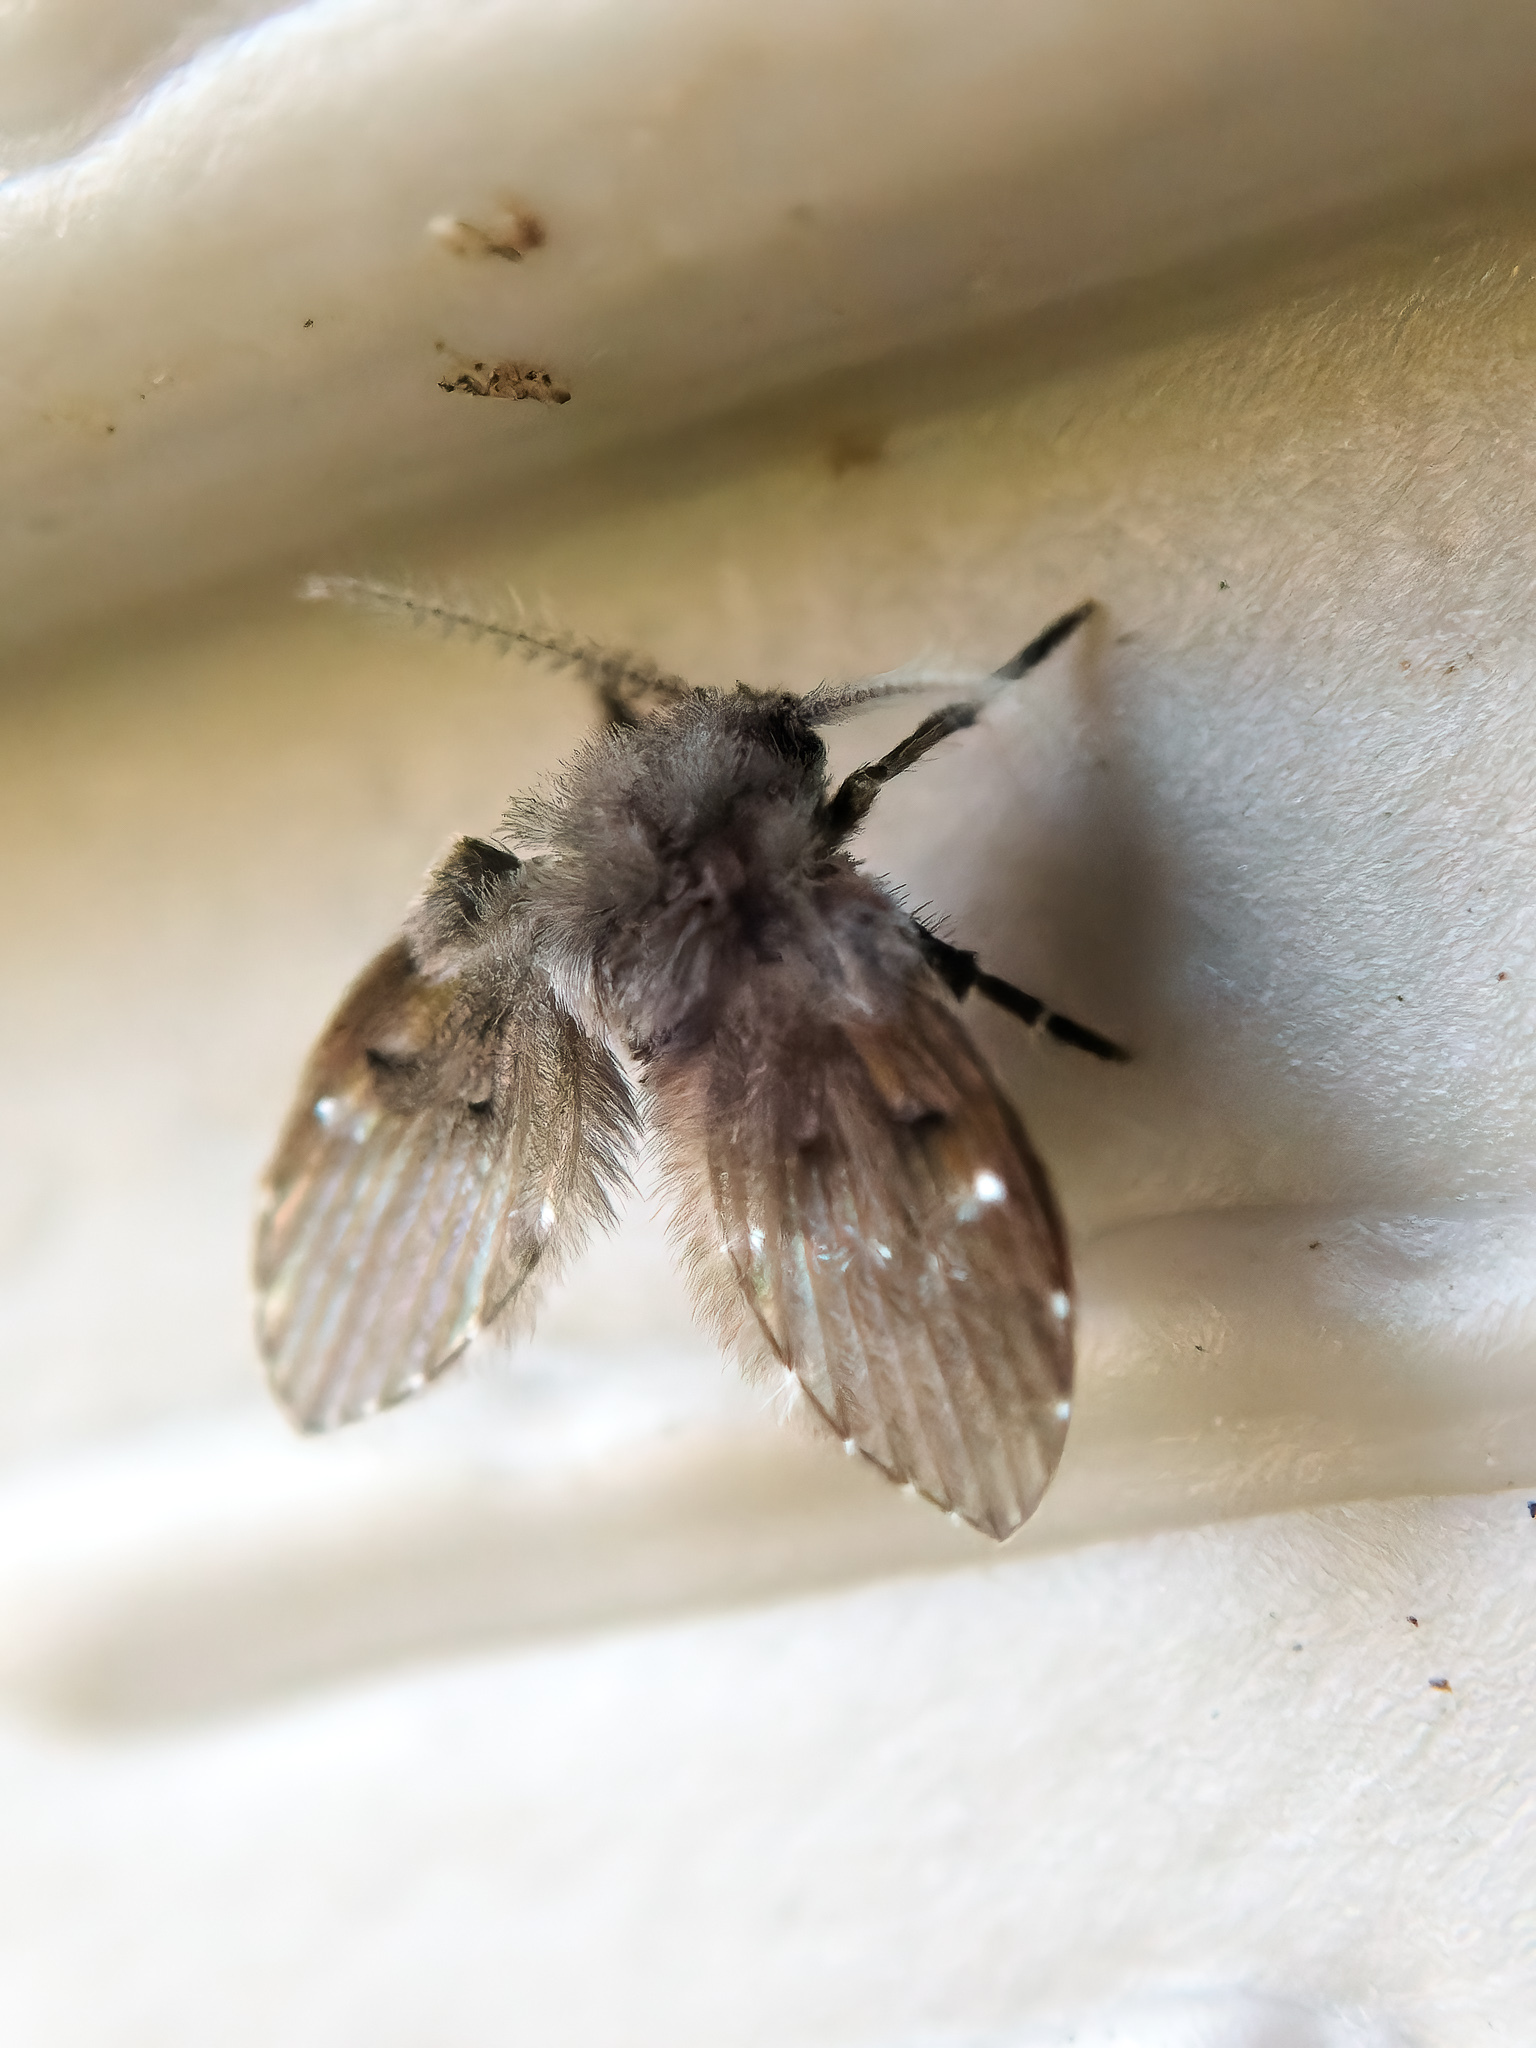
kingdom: Animalia
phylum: Arthropoda
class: Insecta
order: Diptera
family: Psychodidae
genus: Clogmia
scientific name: Clogmia albipunctatus
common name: White-spotted moth fly
